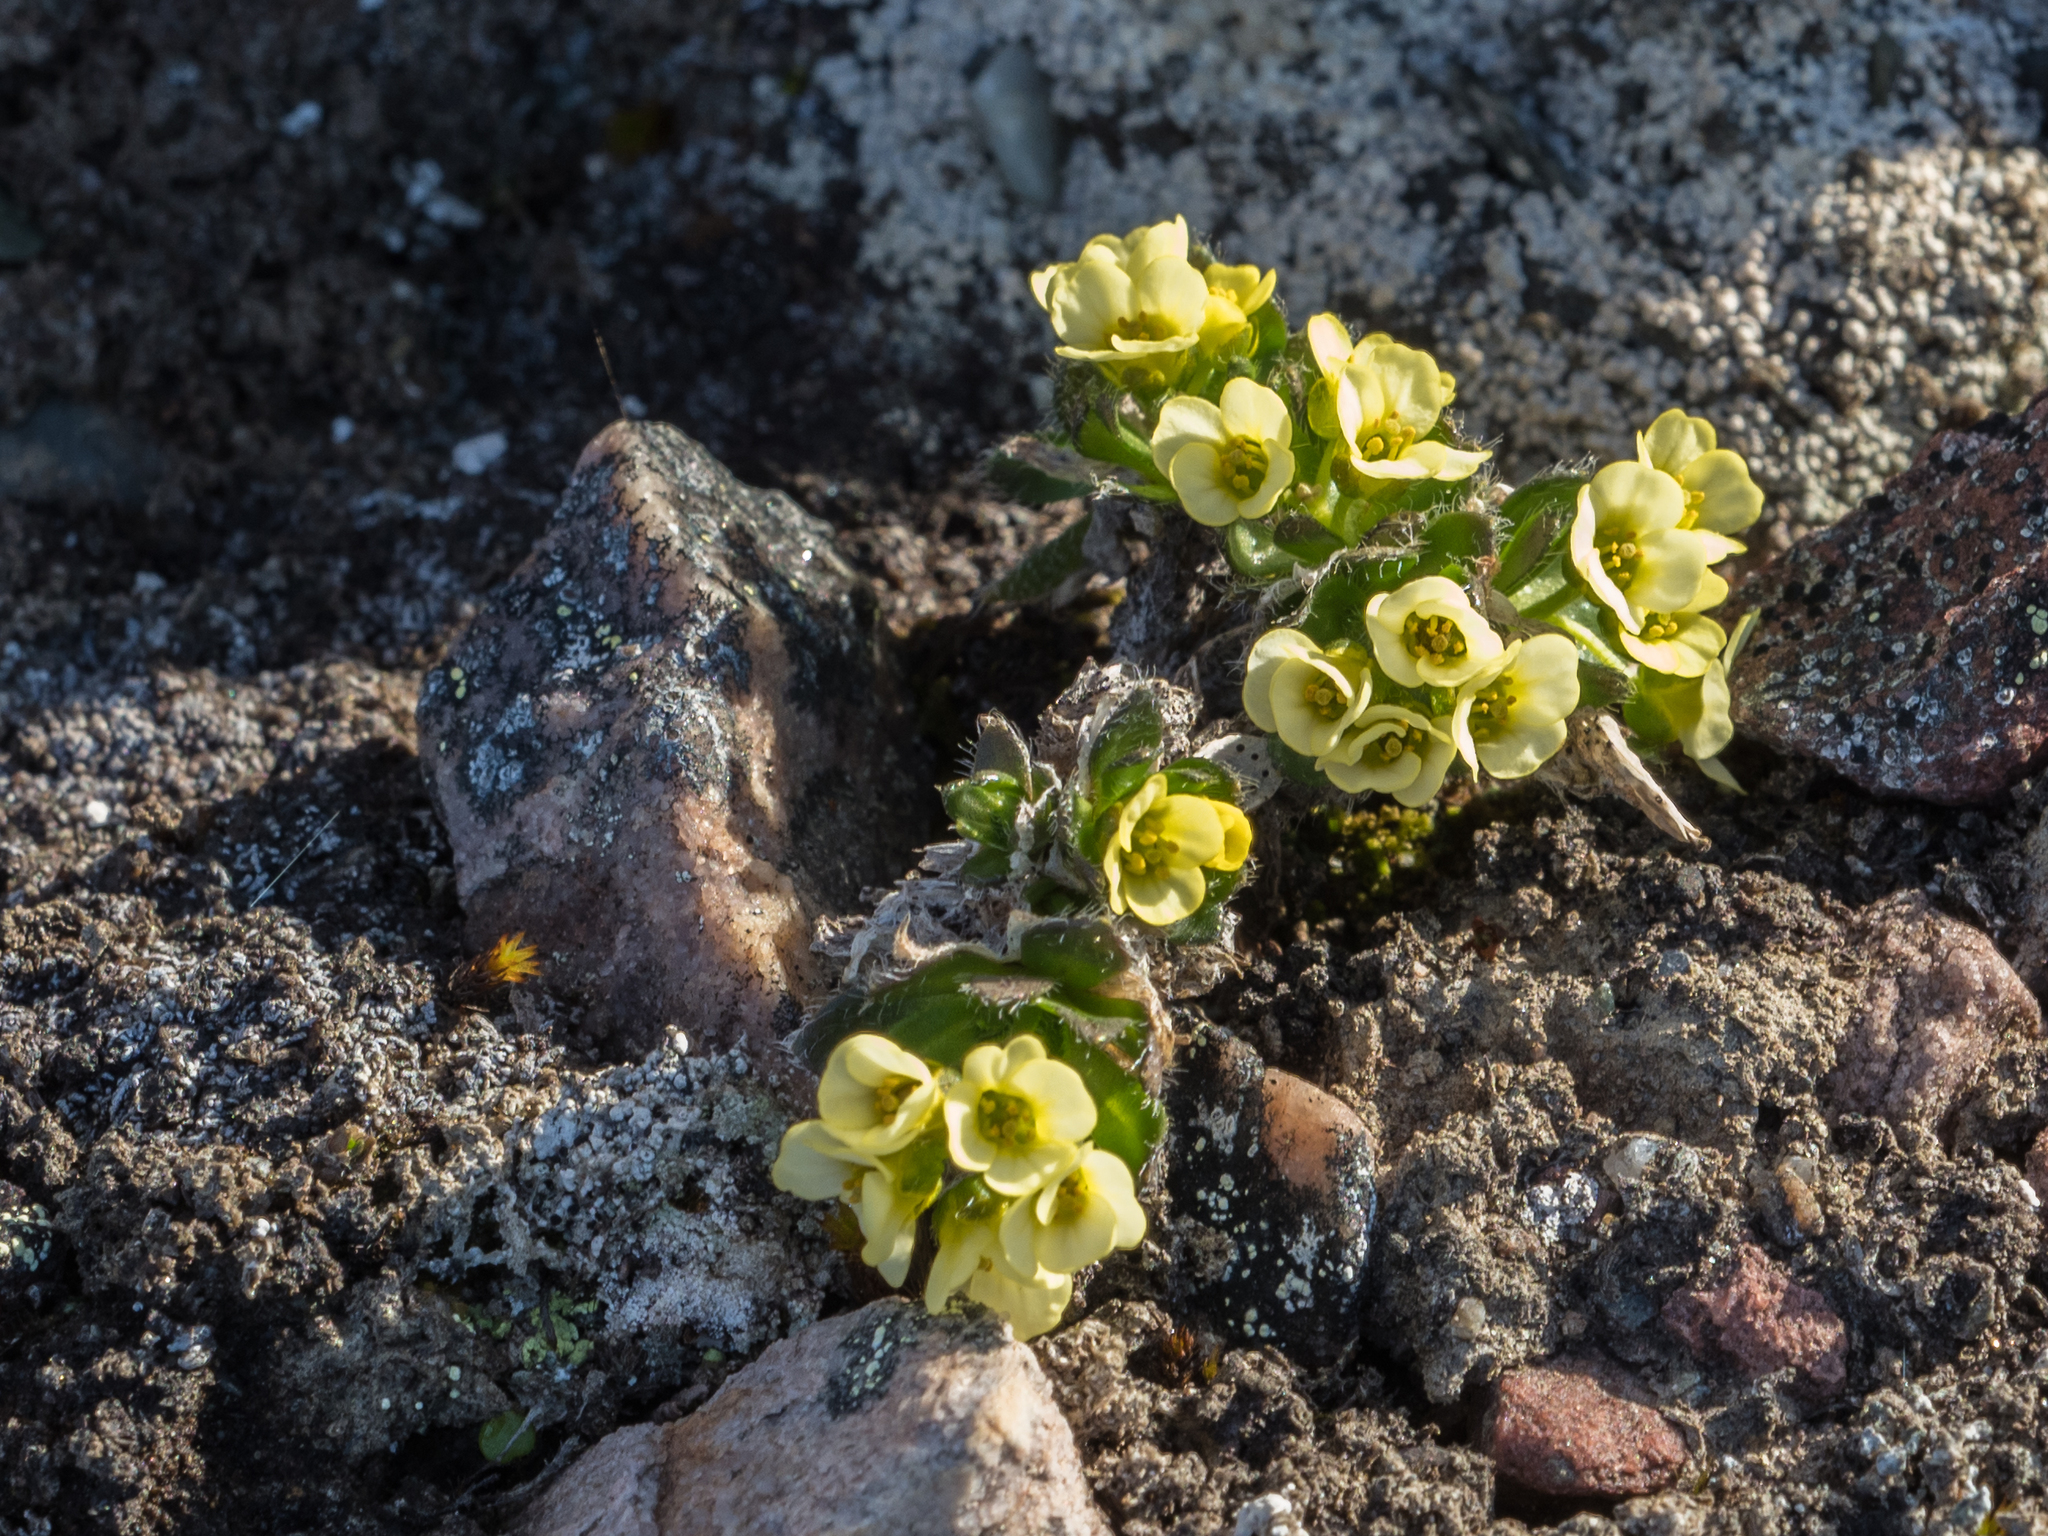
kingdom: Plantae
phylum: Tracheophyta
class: Magnoliopsida
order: Brassicales
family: Brassicaceae
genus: Draba
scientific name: Draba oxycarpa
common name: Sharp-fruited whitlow-grass
